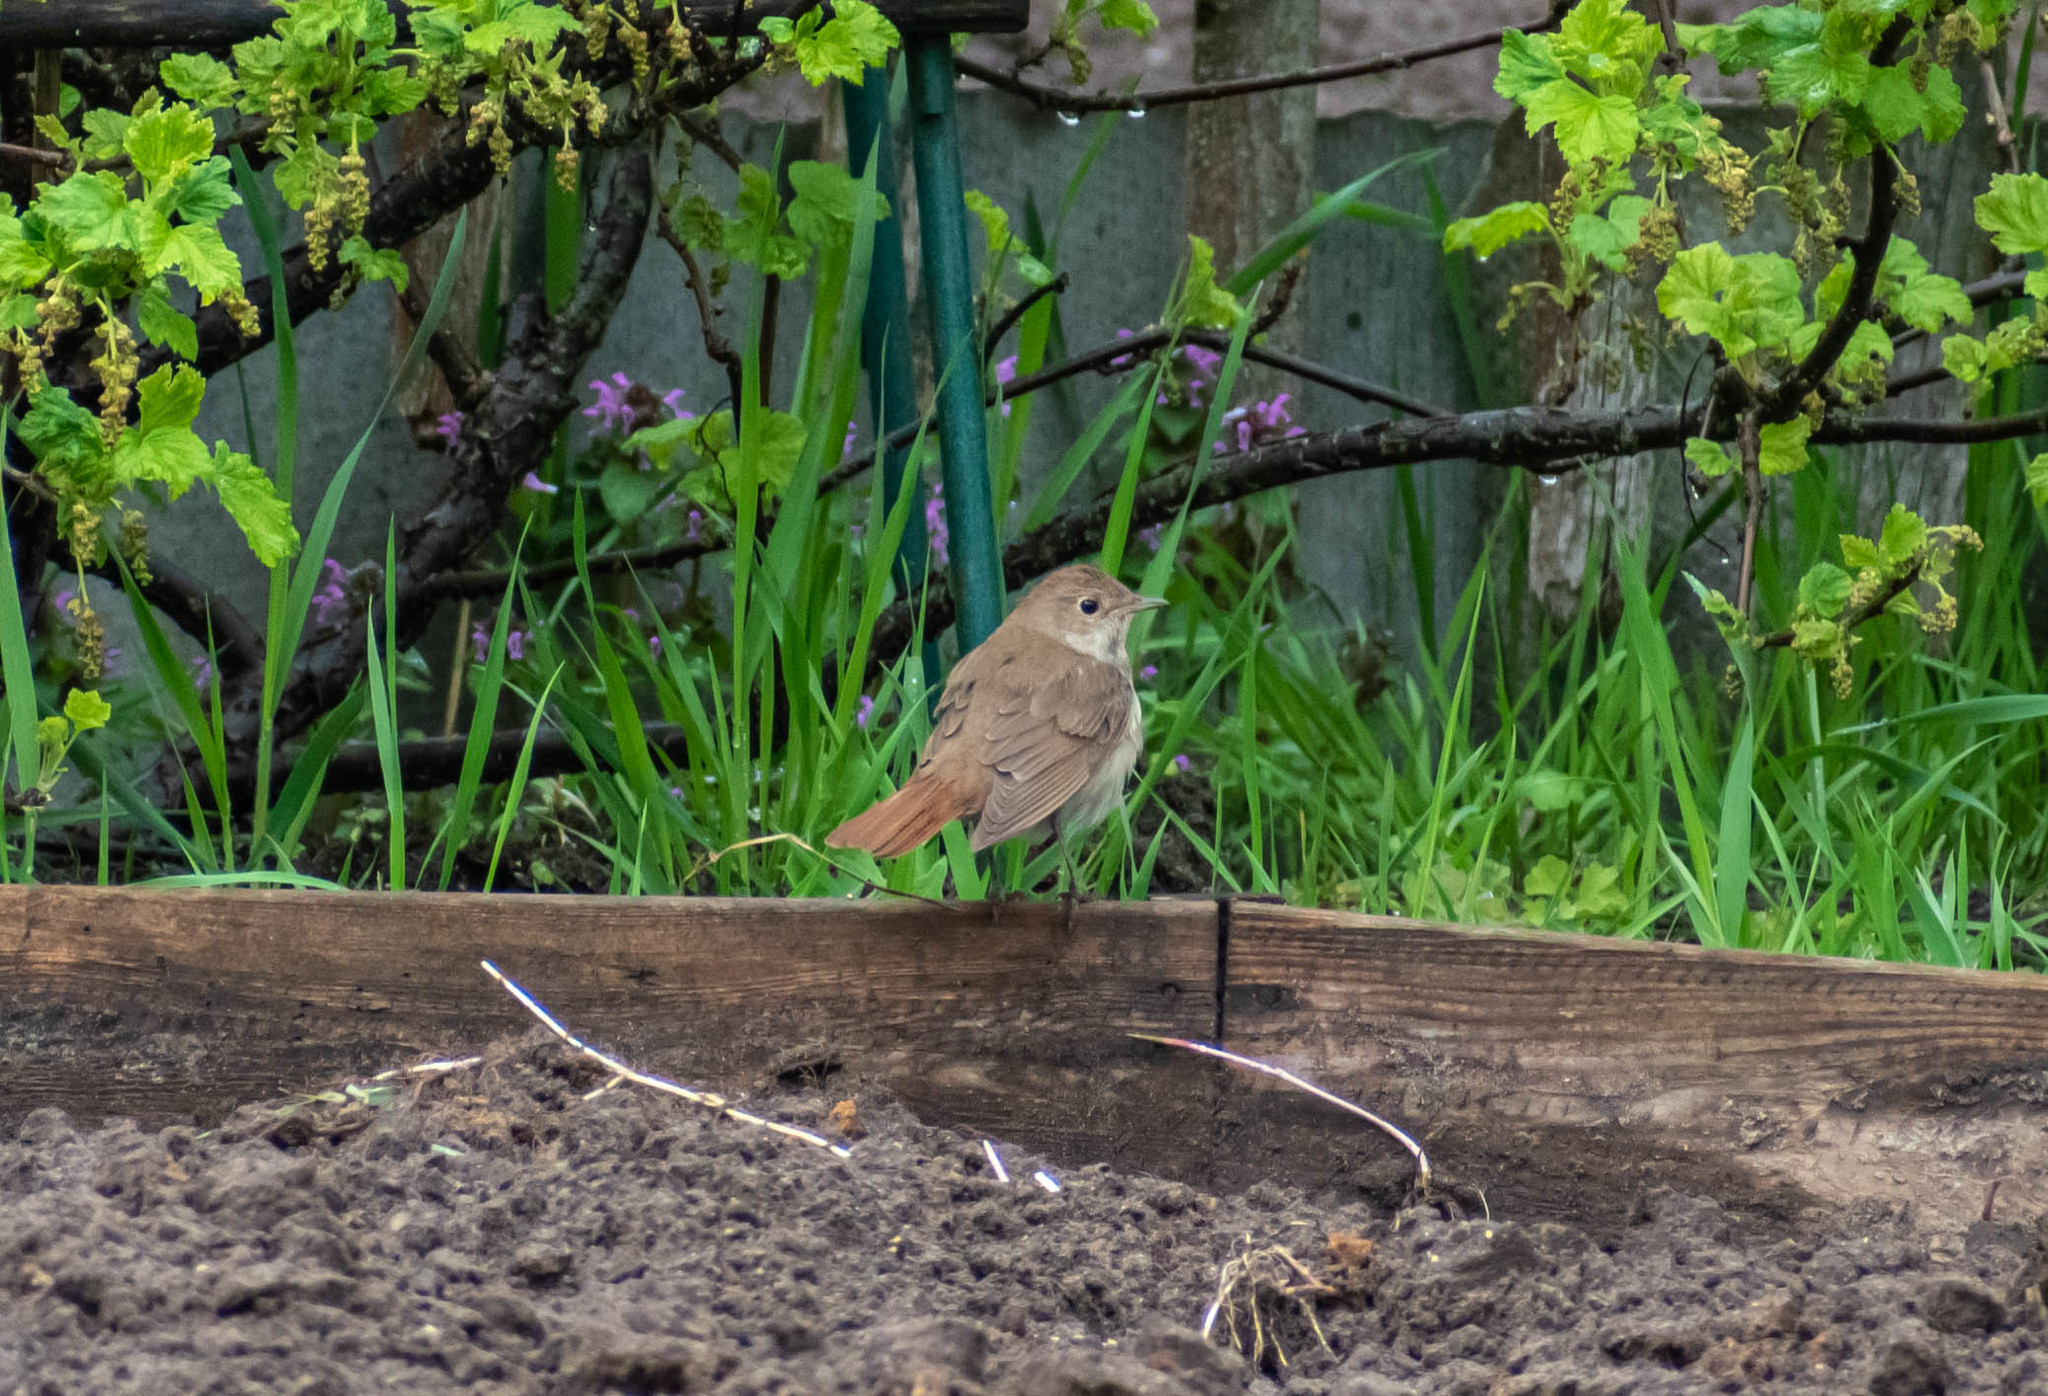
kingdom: Animalia
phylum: Chordata
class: Aves
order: Passeriformes
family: Muscicapidae
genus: Luscinia
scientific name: Luscinia luscinia
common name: Thrush nightingale
